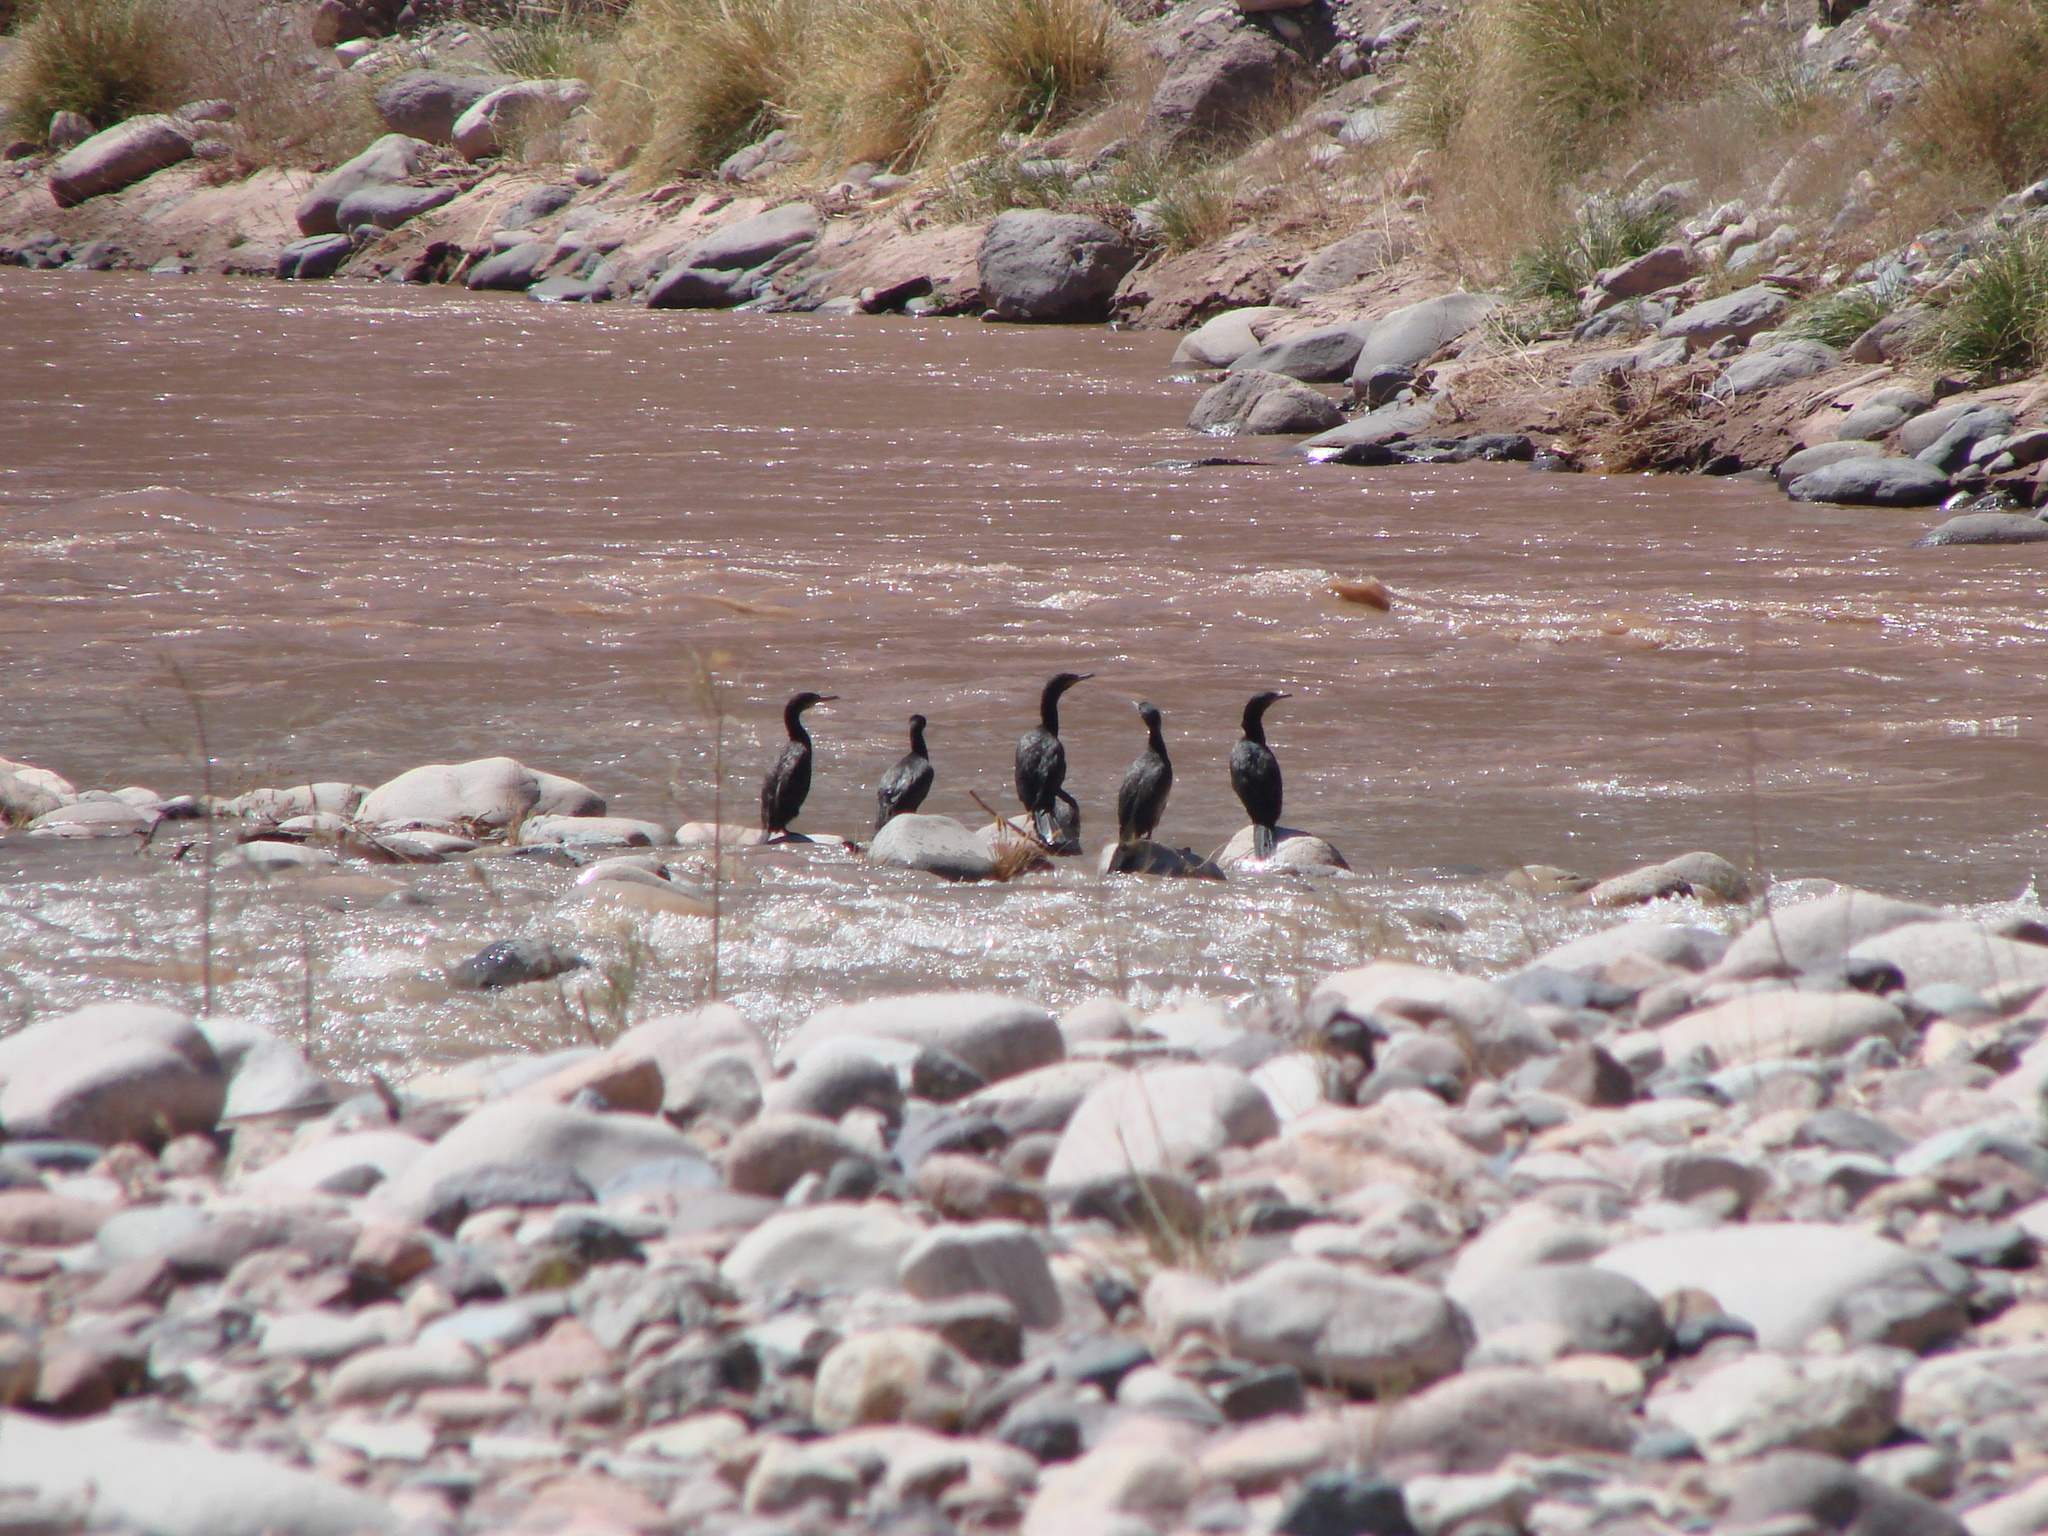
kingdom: Animalia
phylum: Chordata
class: Aves
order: Suliformes
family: Phalacrocoracidae
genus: Phalacrocorax
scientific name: Phalacrocorax brasilianus
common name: Neotropic cormorant
